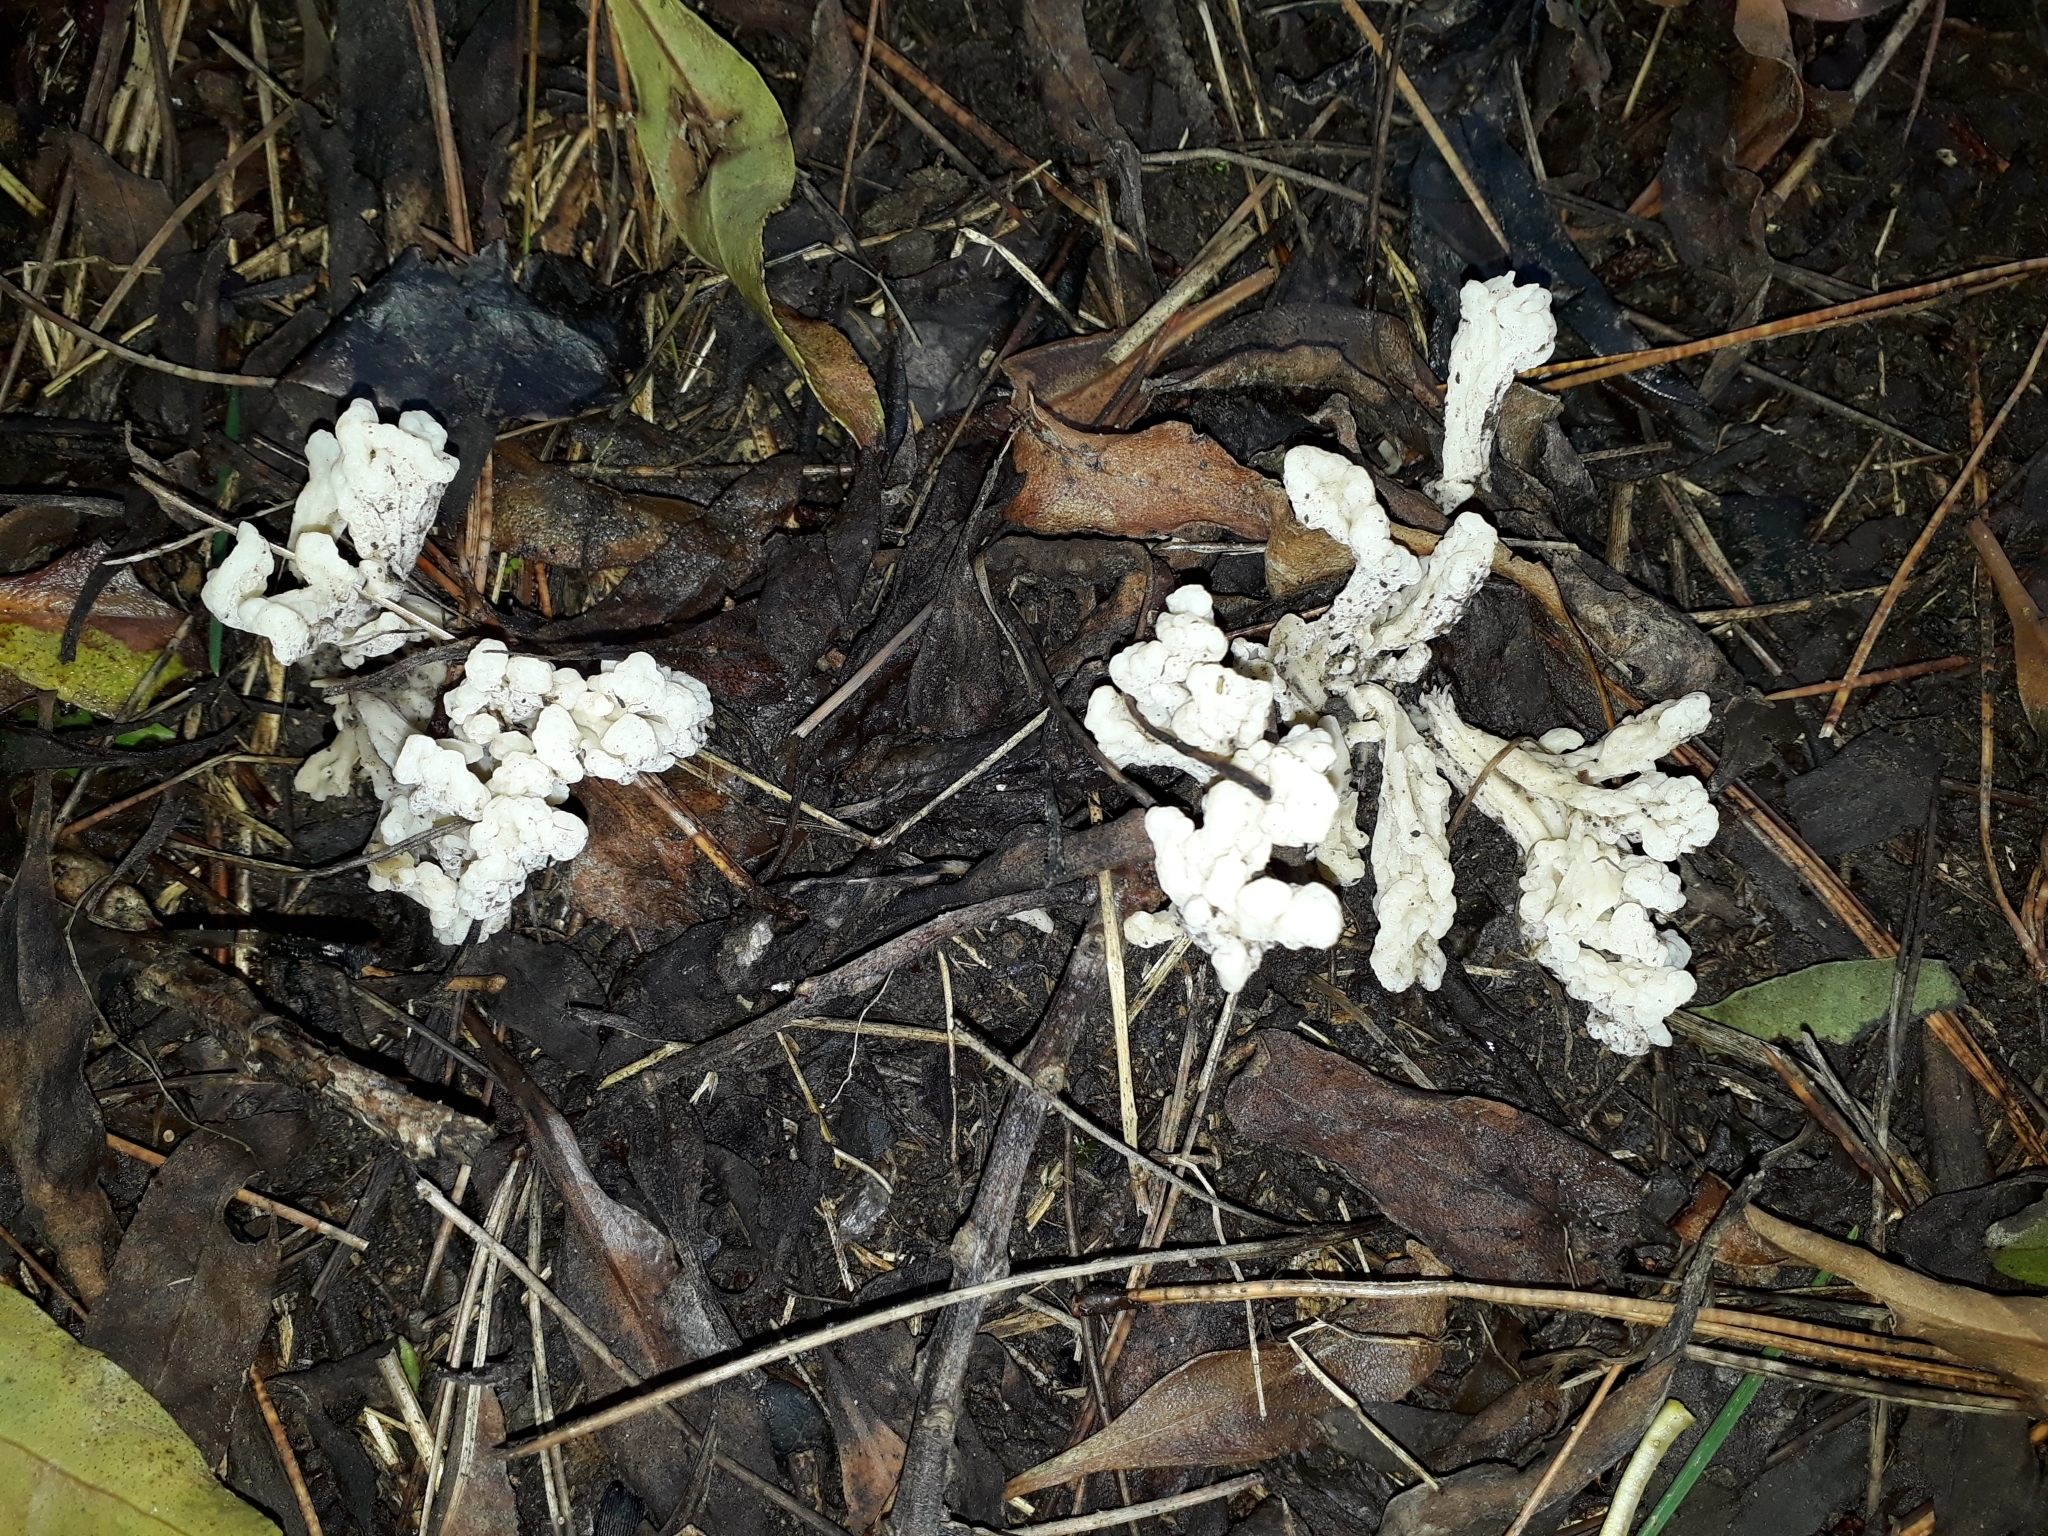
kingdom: Fungi
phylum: Basidiomycota
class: Agaricomycetes
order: Cantharellales
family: Hydnaceae
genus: Clavulina
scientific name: Clavulina rugosa
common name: Wrinkled club
